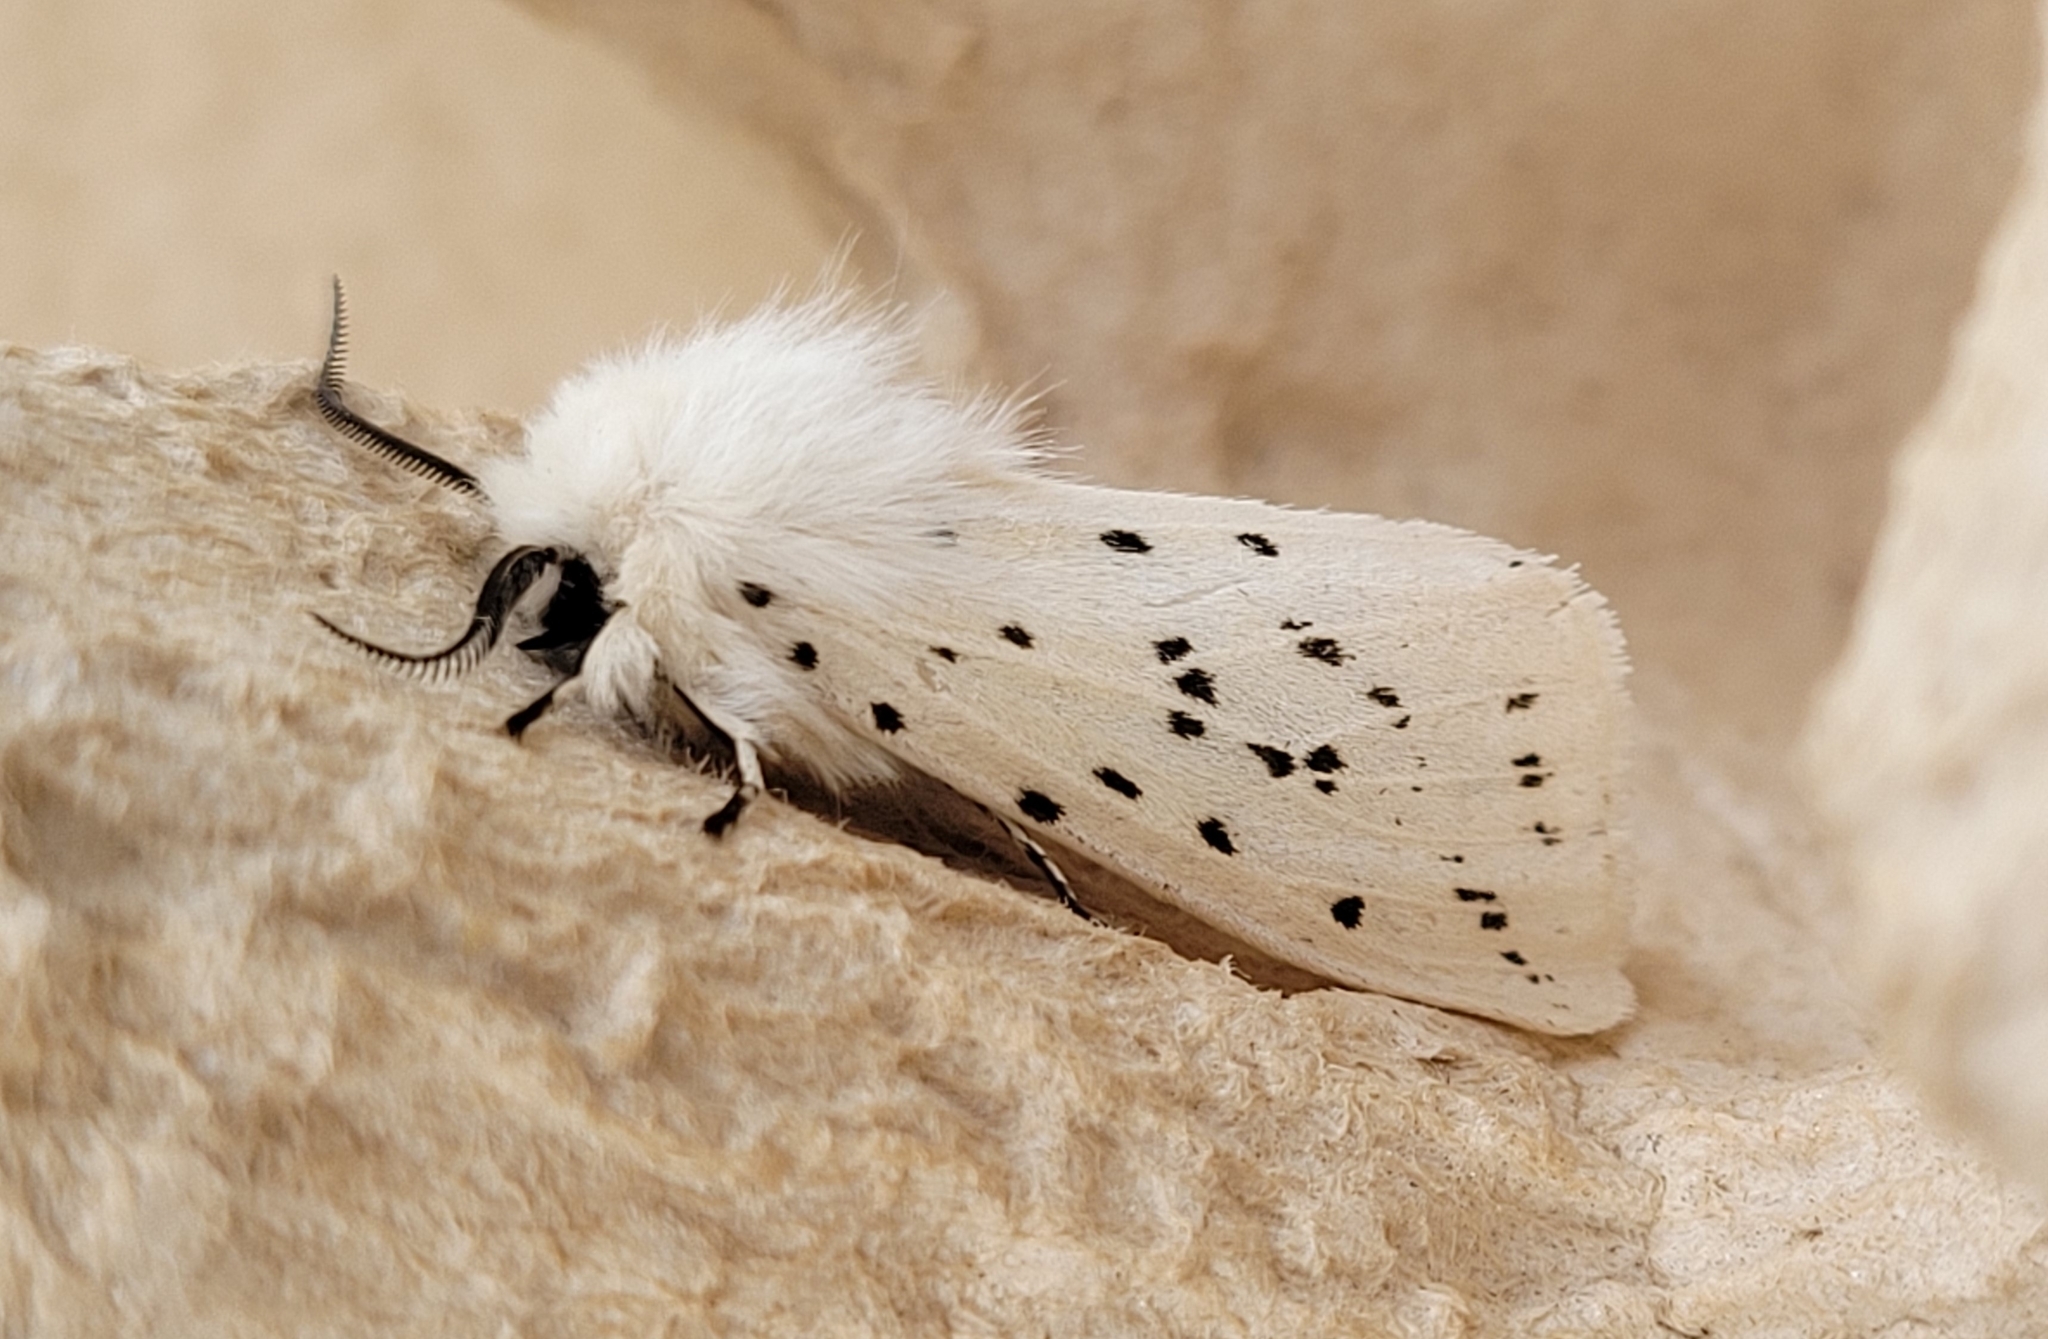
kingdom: Animalia
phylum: Arthropoda
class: Insecta
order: Lepidoptera
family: Erebidae
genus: Spilosoma
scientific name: Spilosoma lubricipeda
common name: White ermine
